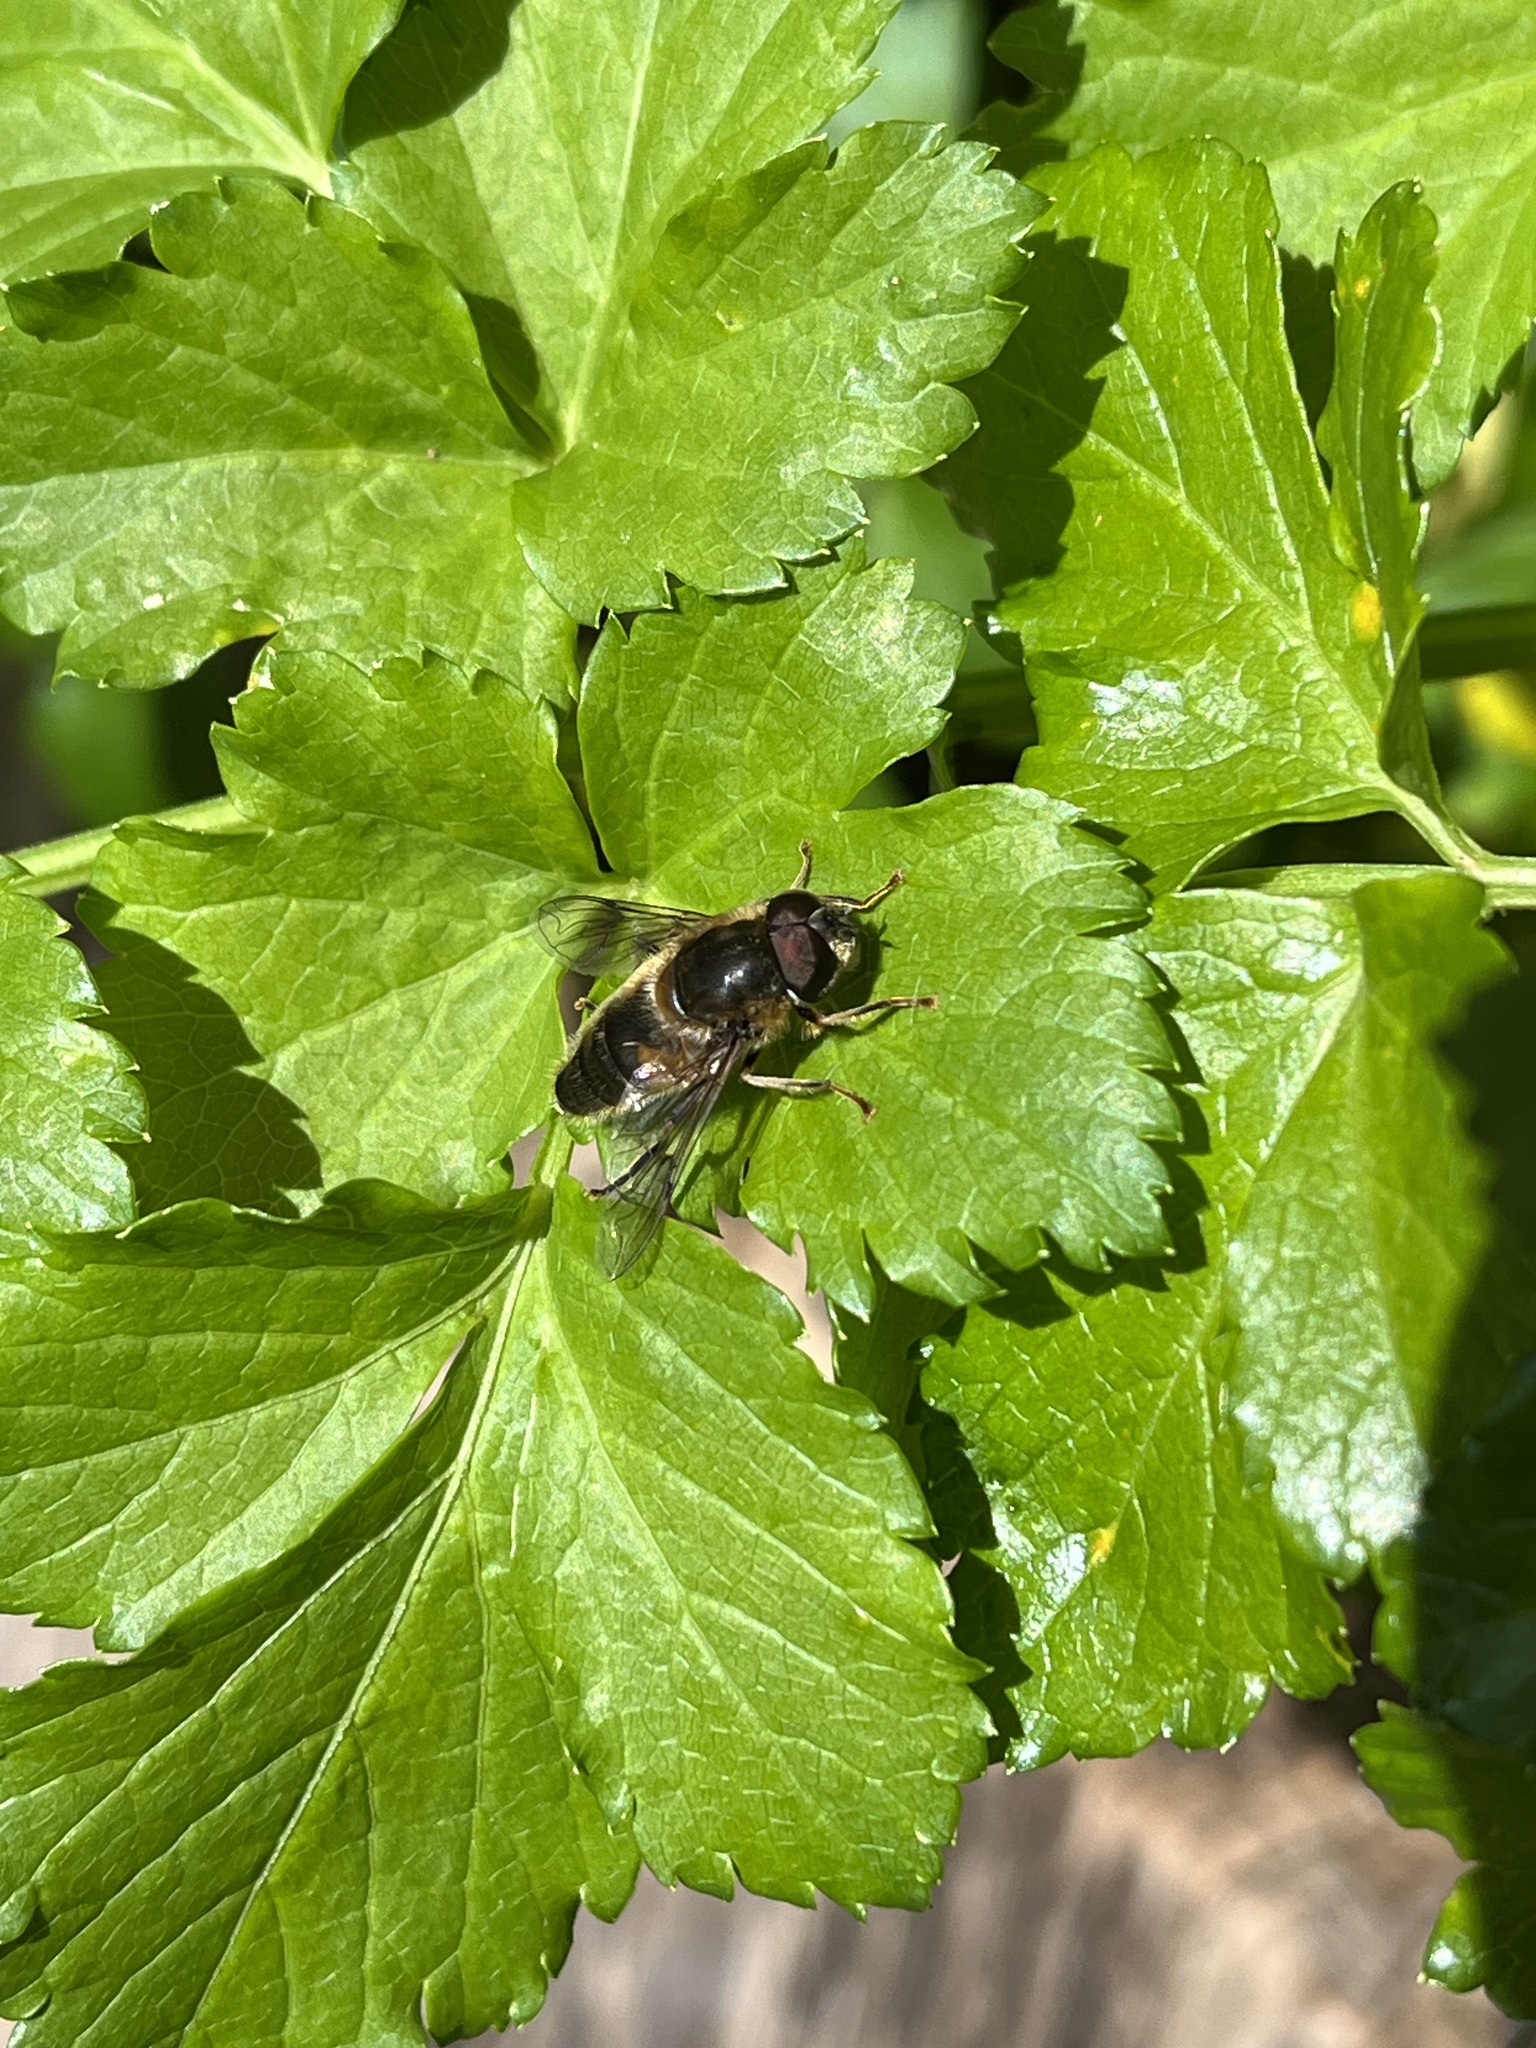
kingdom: Animalia
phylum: Arthropoda
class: Insecta
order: Diptera
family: Syrphidae
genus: Eristalis
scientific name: Eristalis pertinax
